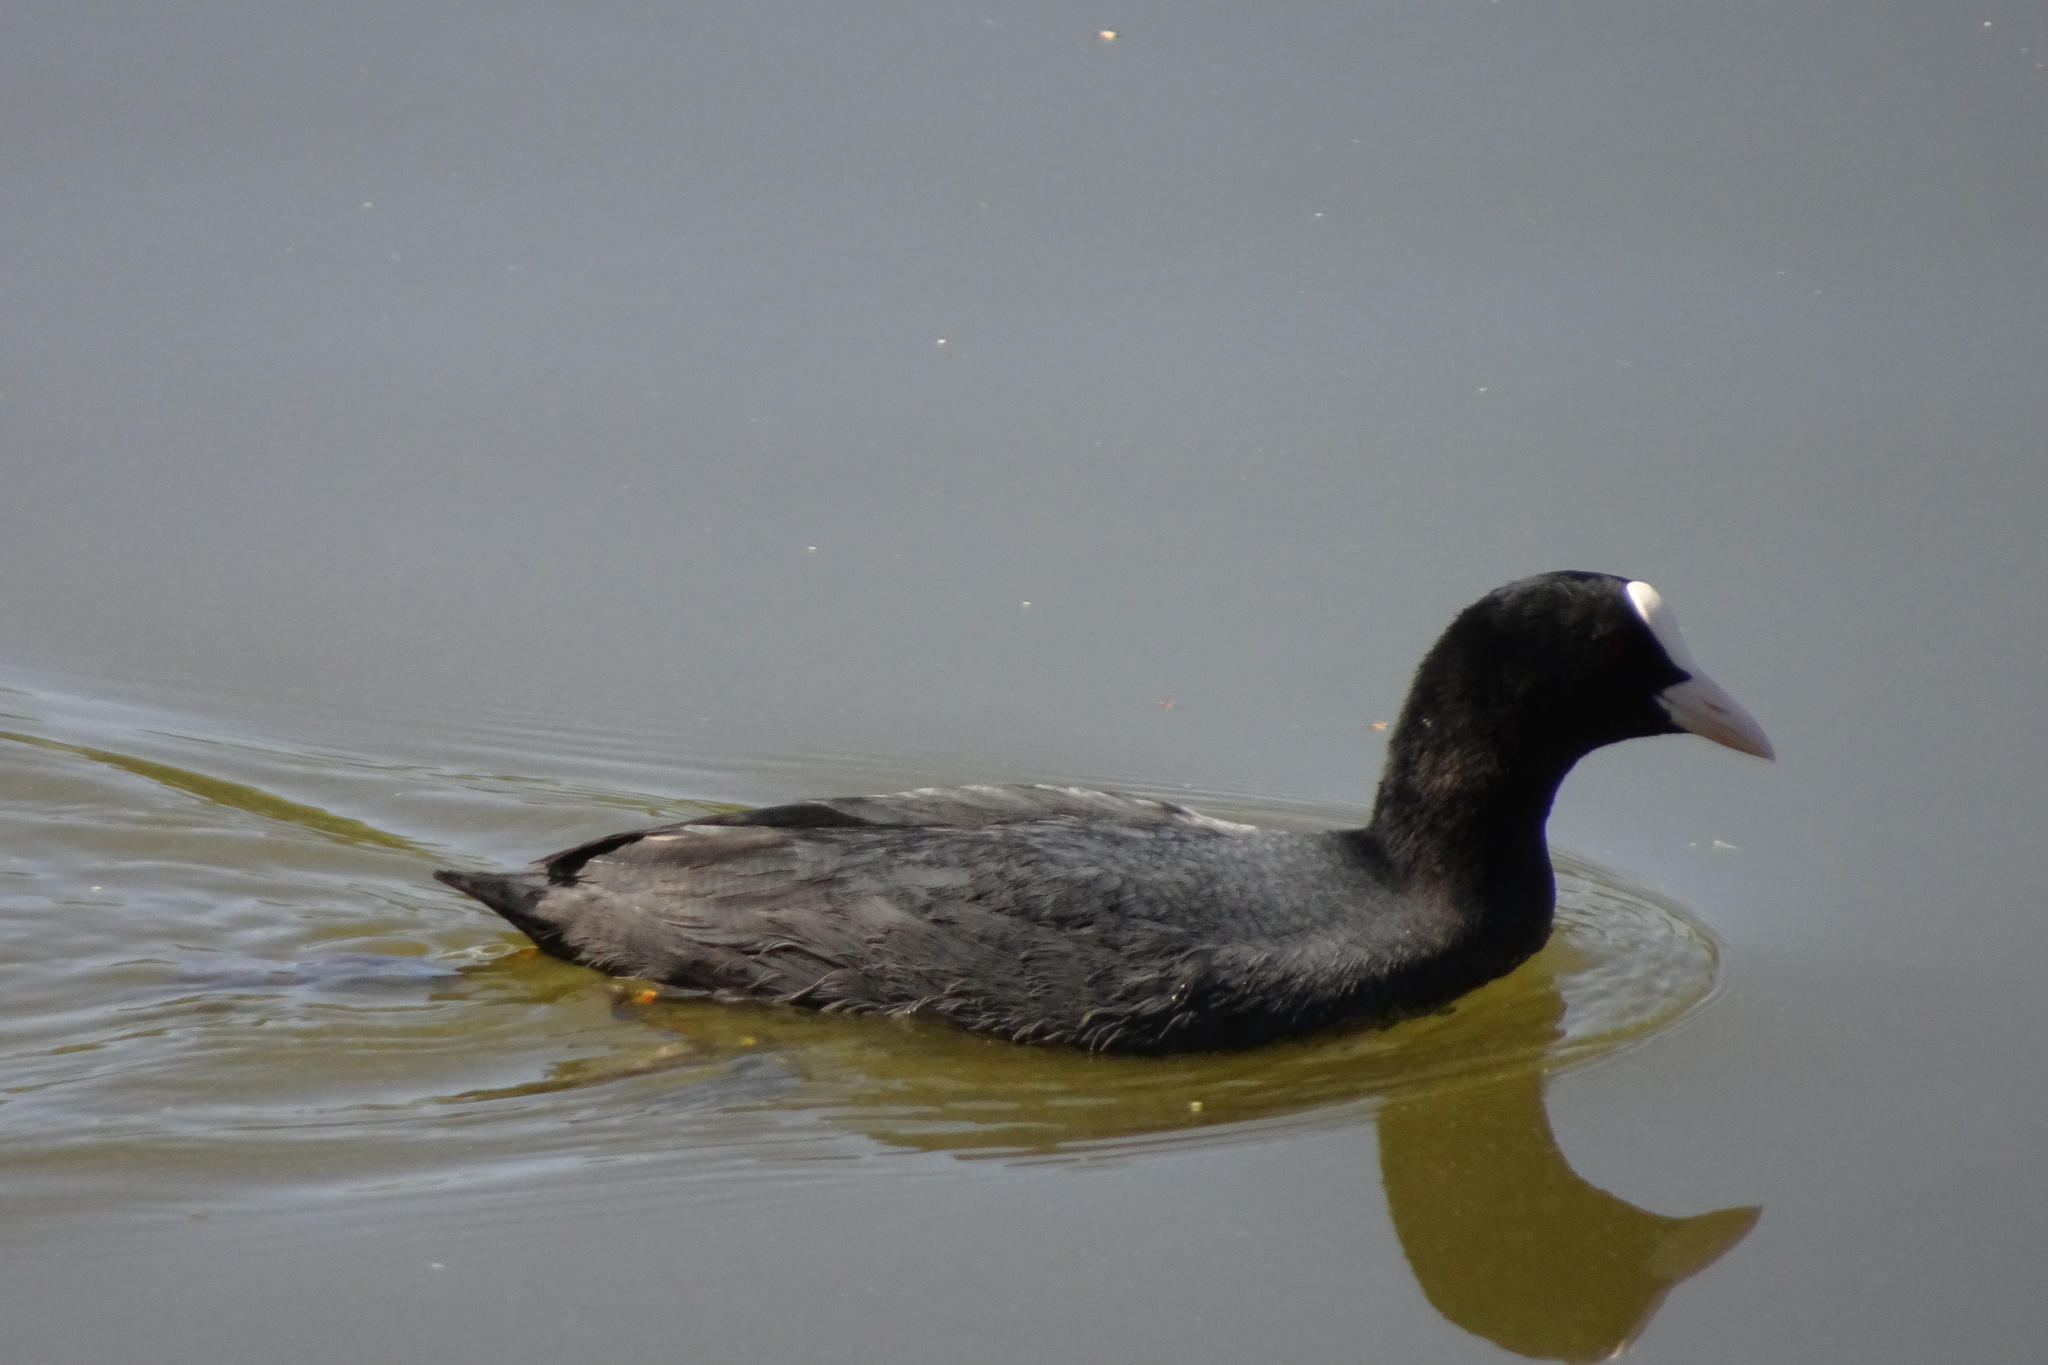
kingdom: Animalia
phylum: Chordata
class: Aves
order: Gruiformes
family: Rallidae
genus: Fulica
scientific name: Fulica atra
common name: Eurasian coot
